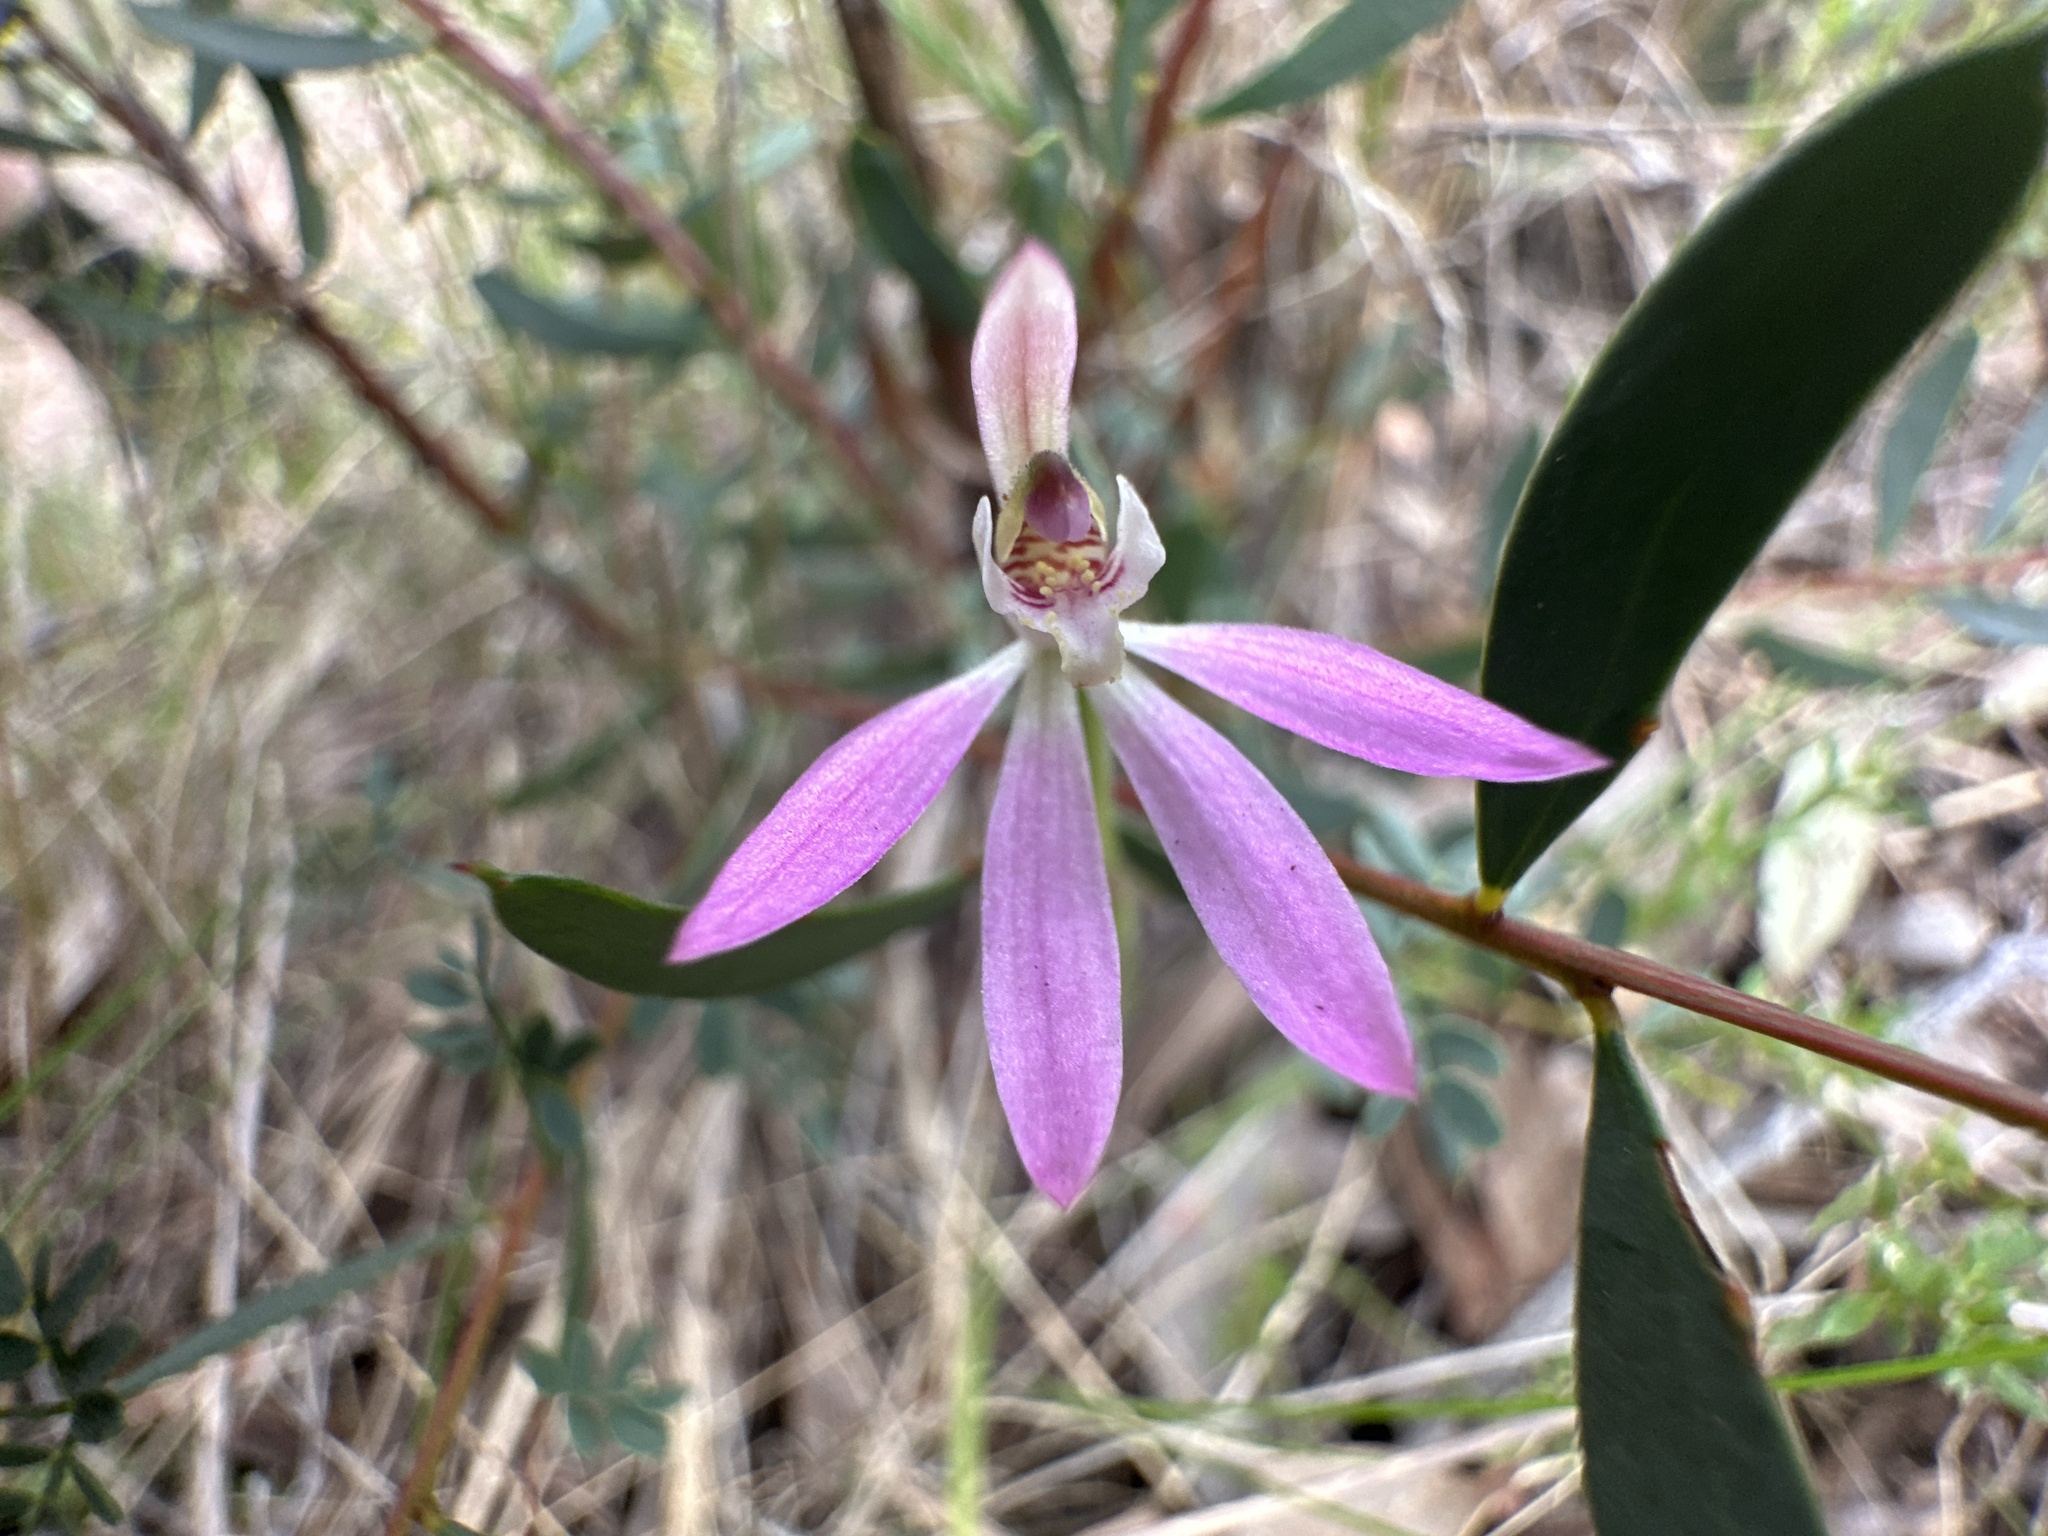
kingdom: Plantae
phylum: Tracheophyta
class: Liliopsida
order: Asparagales
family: Orchidaceae
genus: Caladenia
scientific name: Caladenia carnea
